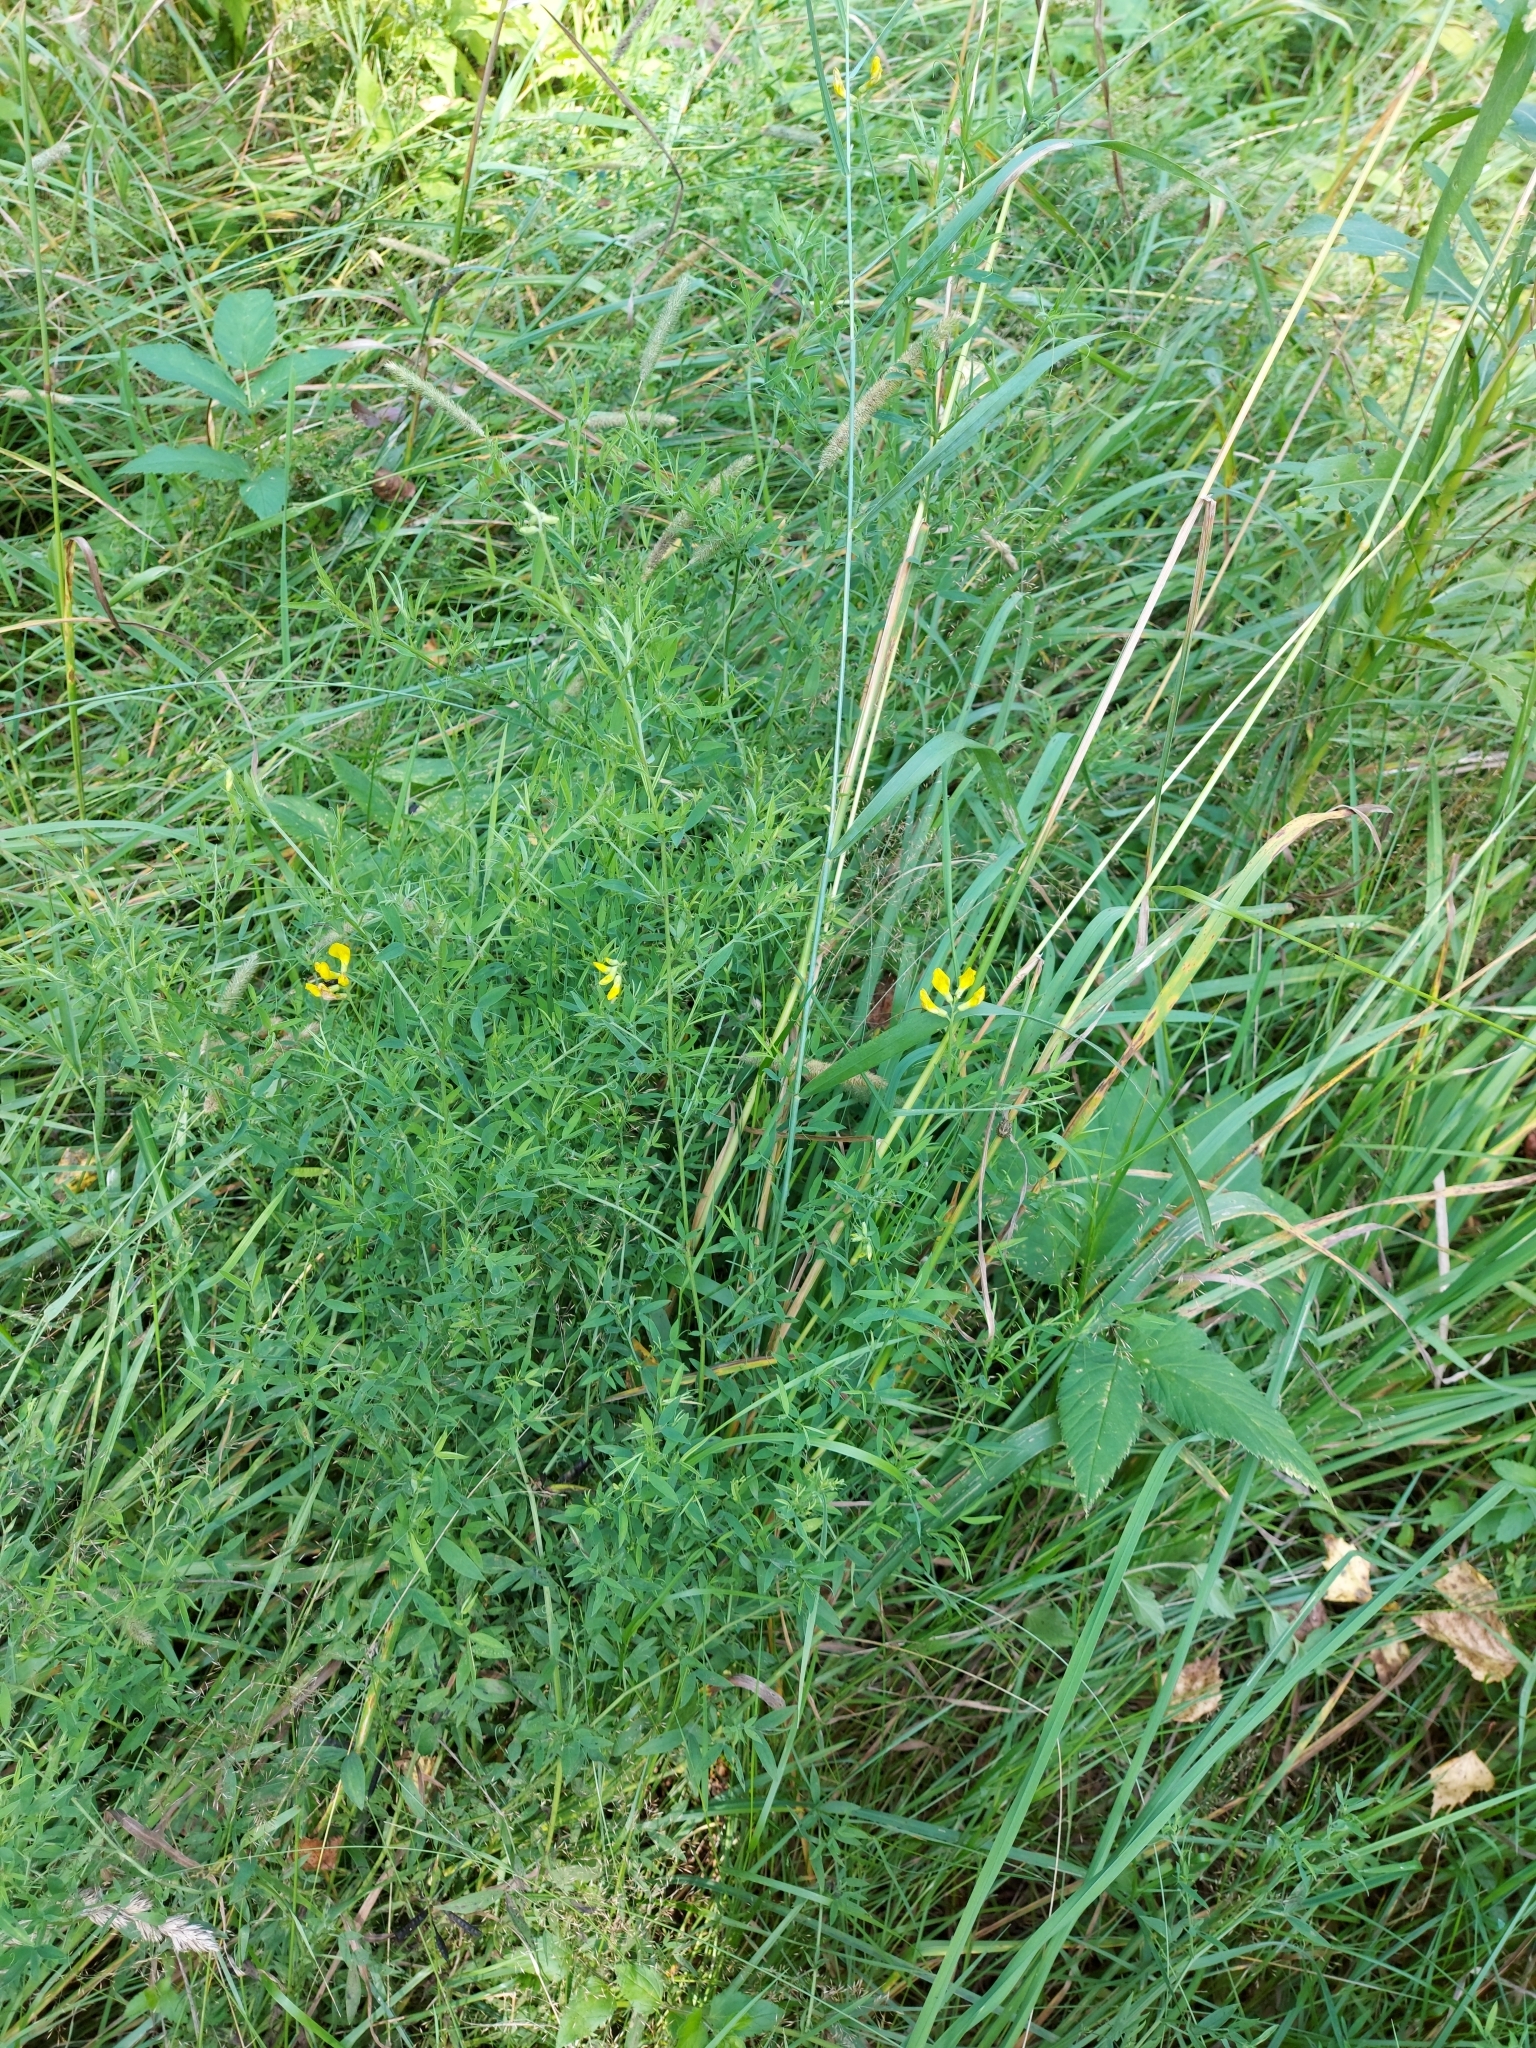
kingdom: Plantae
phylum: Tracheophyta
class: Magnoliopsida
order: Fabales
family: Fabaceae
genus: Lathyrus
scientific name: Lathyrus pratensis
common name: Meadow vetchling
